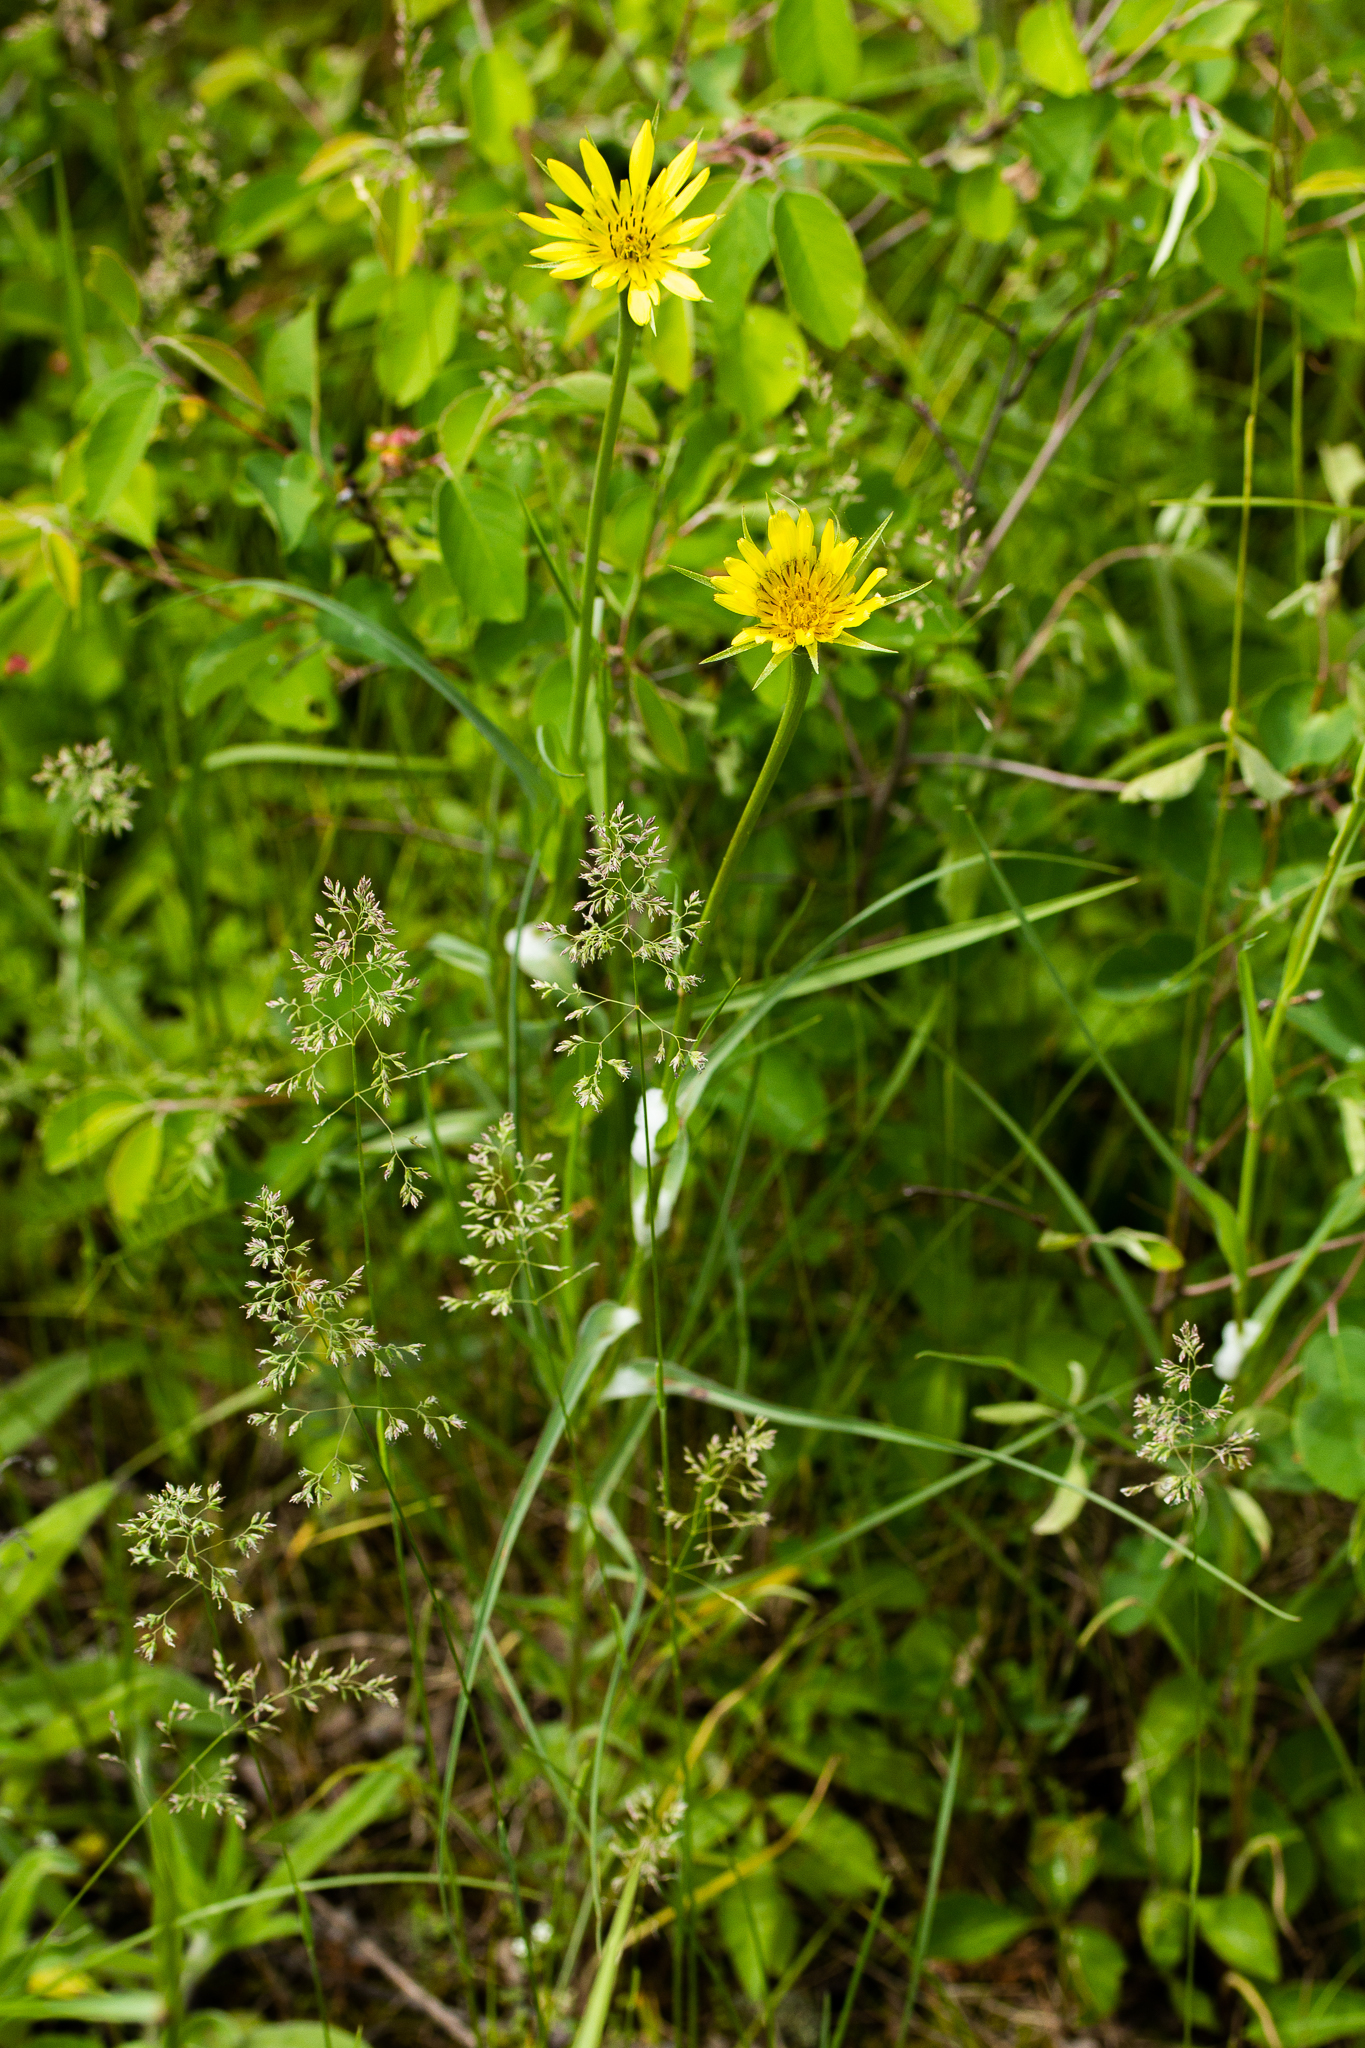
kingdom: Plantae
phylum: Tracheophyta
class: Magnoliopsida
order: Asterales
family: Asteraceae
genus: Tragopogon
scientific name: Tragopogon dubius
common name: Yellow salsify
